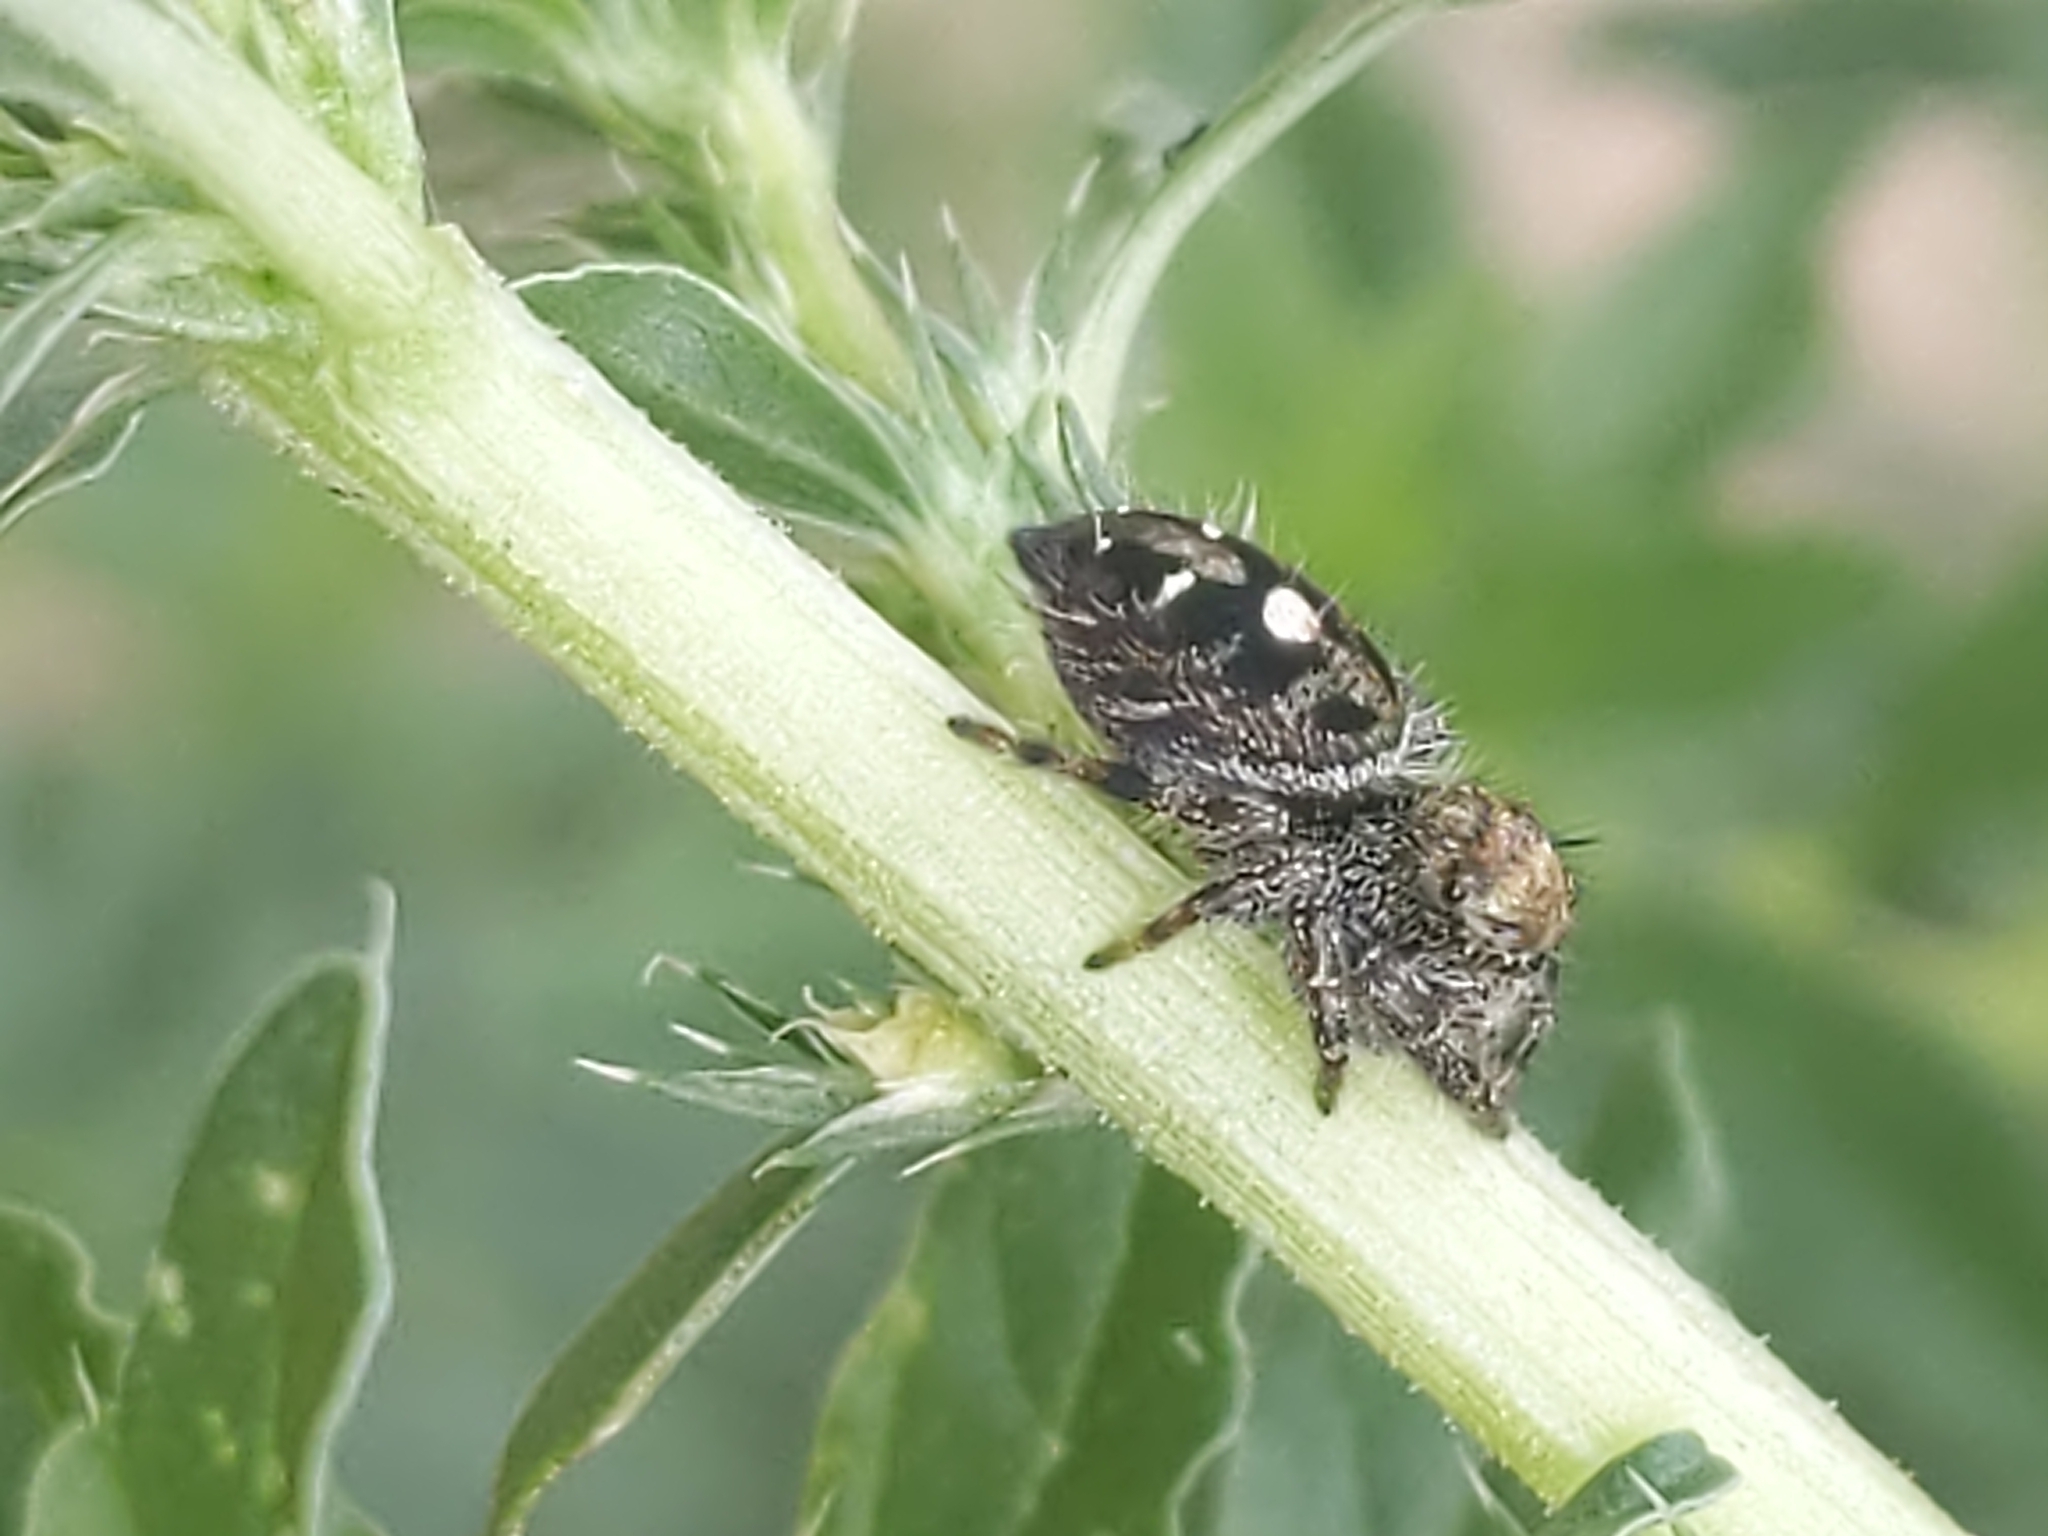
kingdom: Animalia
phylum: Arthropoda
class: Arachnida
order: Araneae
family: Salticidae
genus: Phidippus
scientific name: Phidippus audax
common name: Bold jumper
